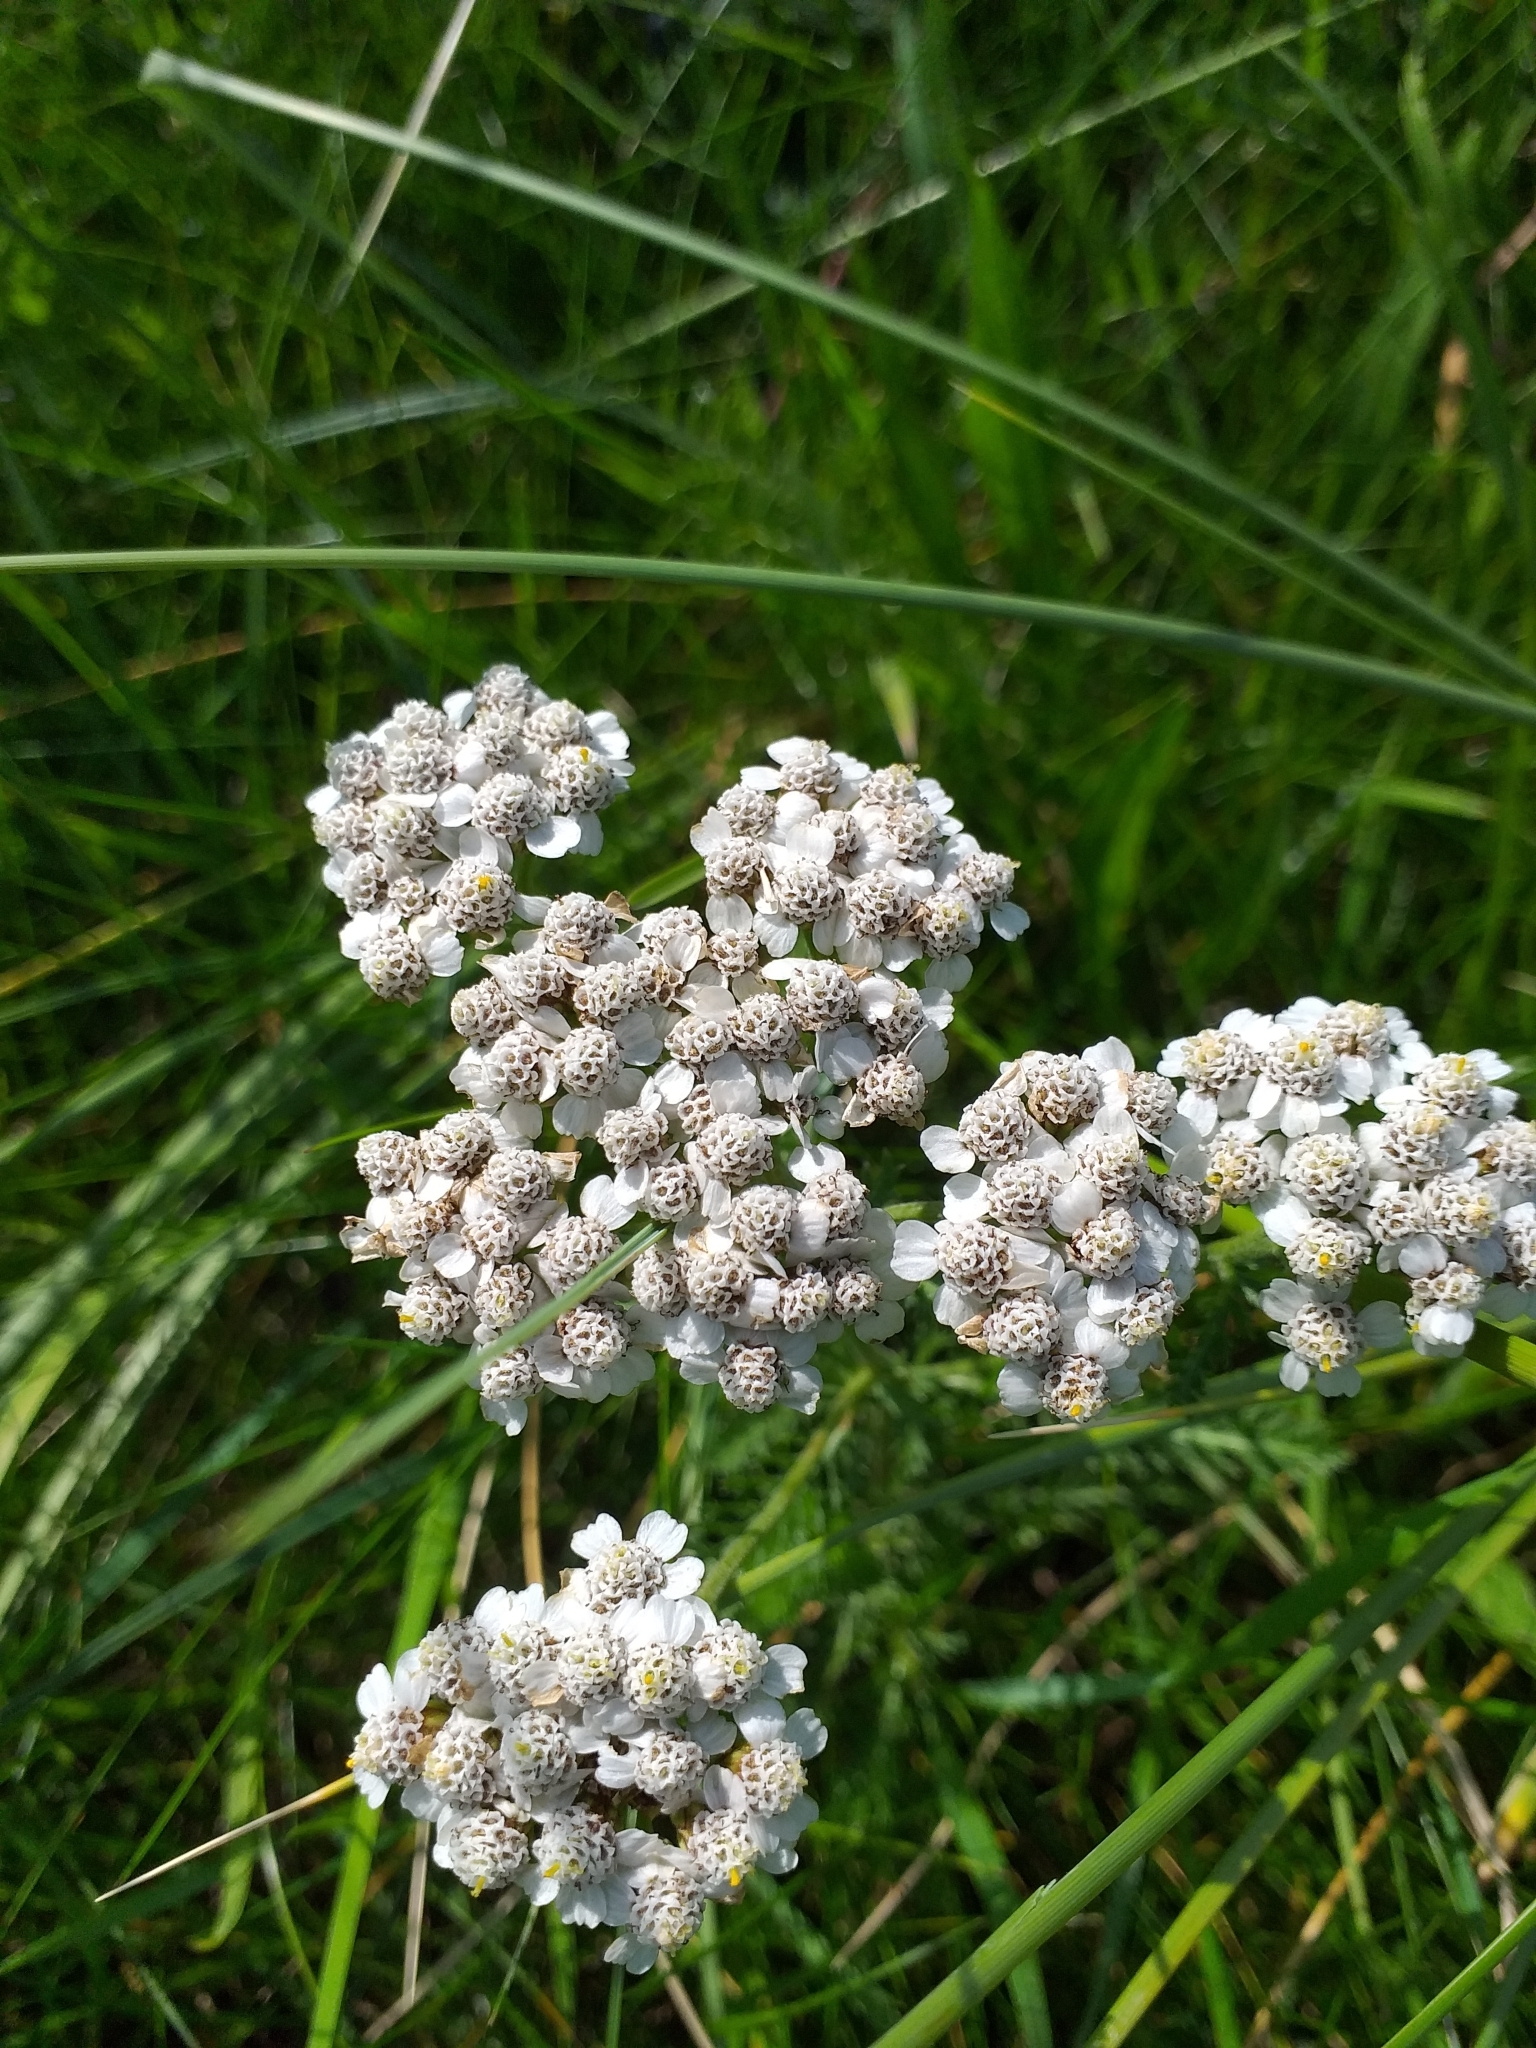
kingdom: Plantae
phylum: Tracheophyta
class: Magnoliopsida
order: Asterales
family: Asteraceae
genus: Achillea
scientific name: Achillea millefolium
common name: Yarrow
